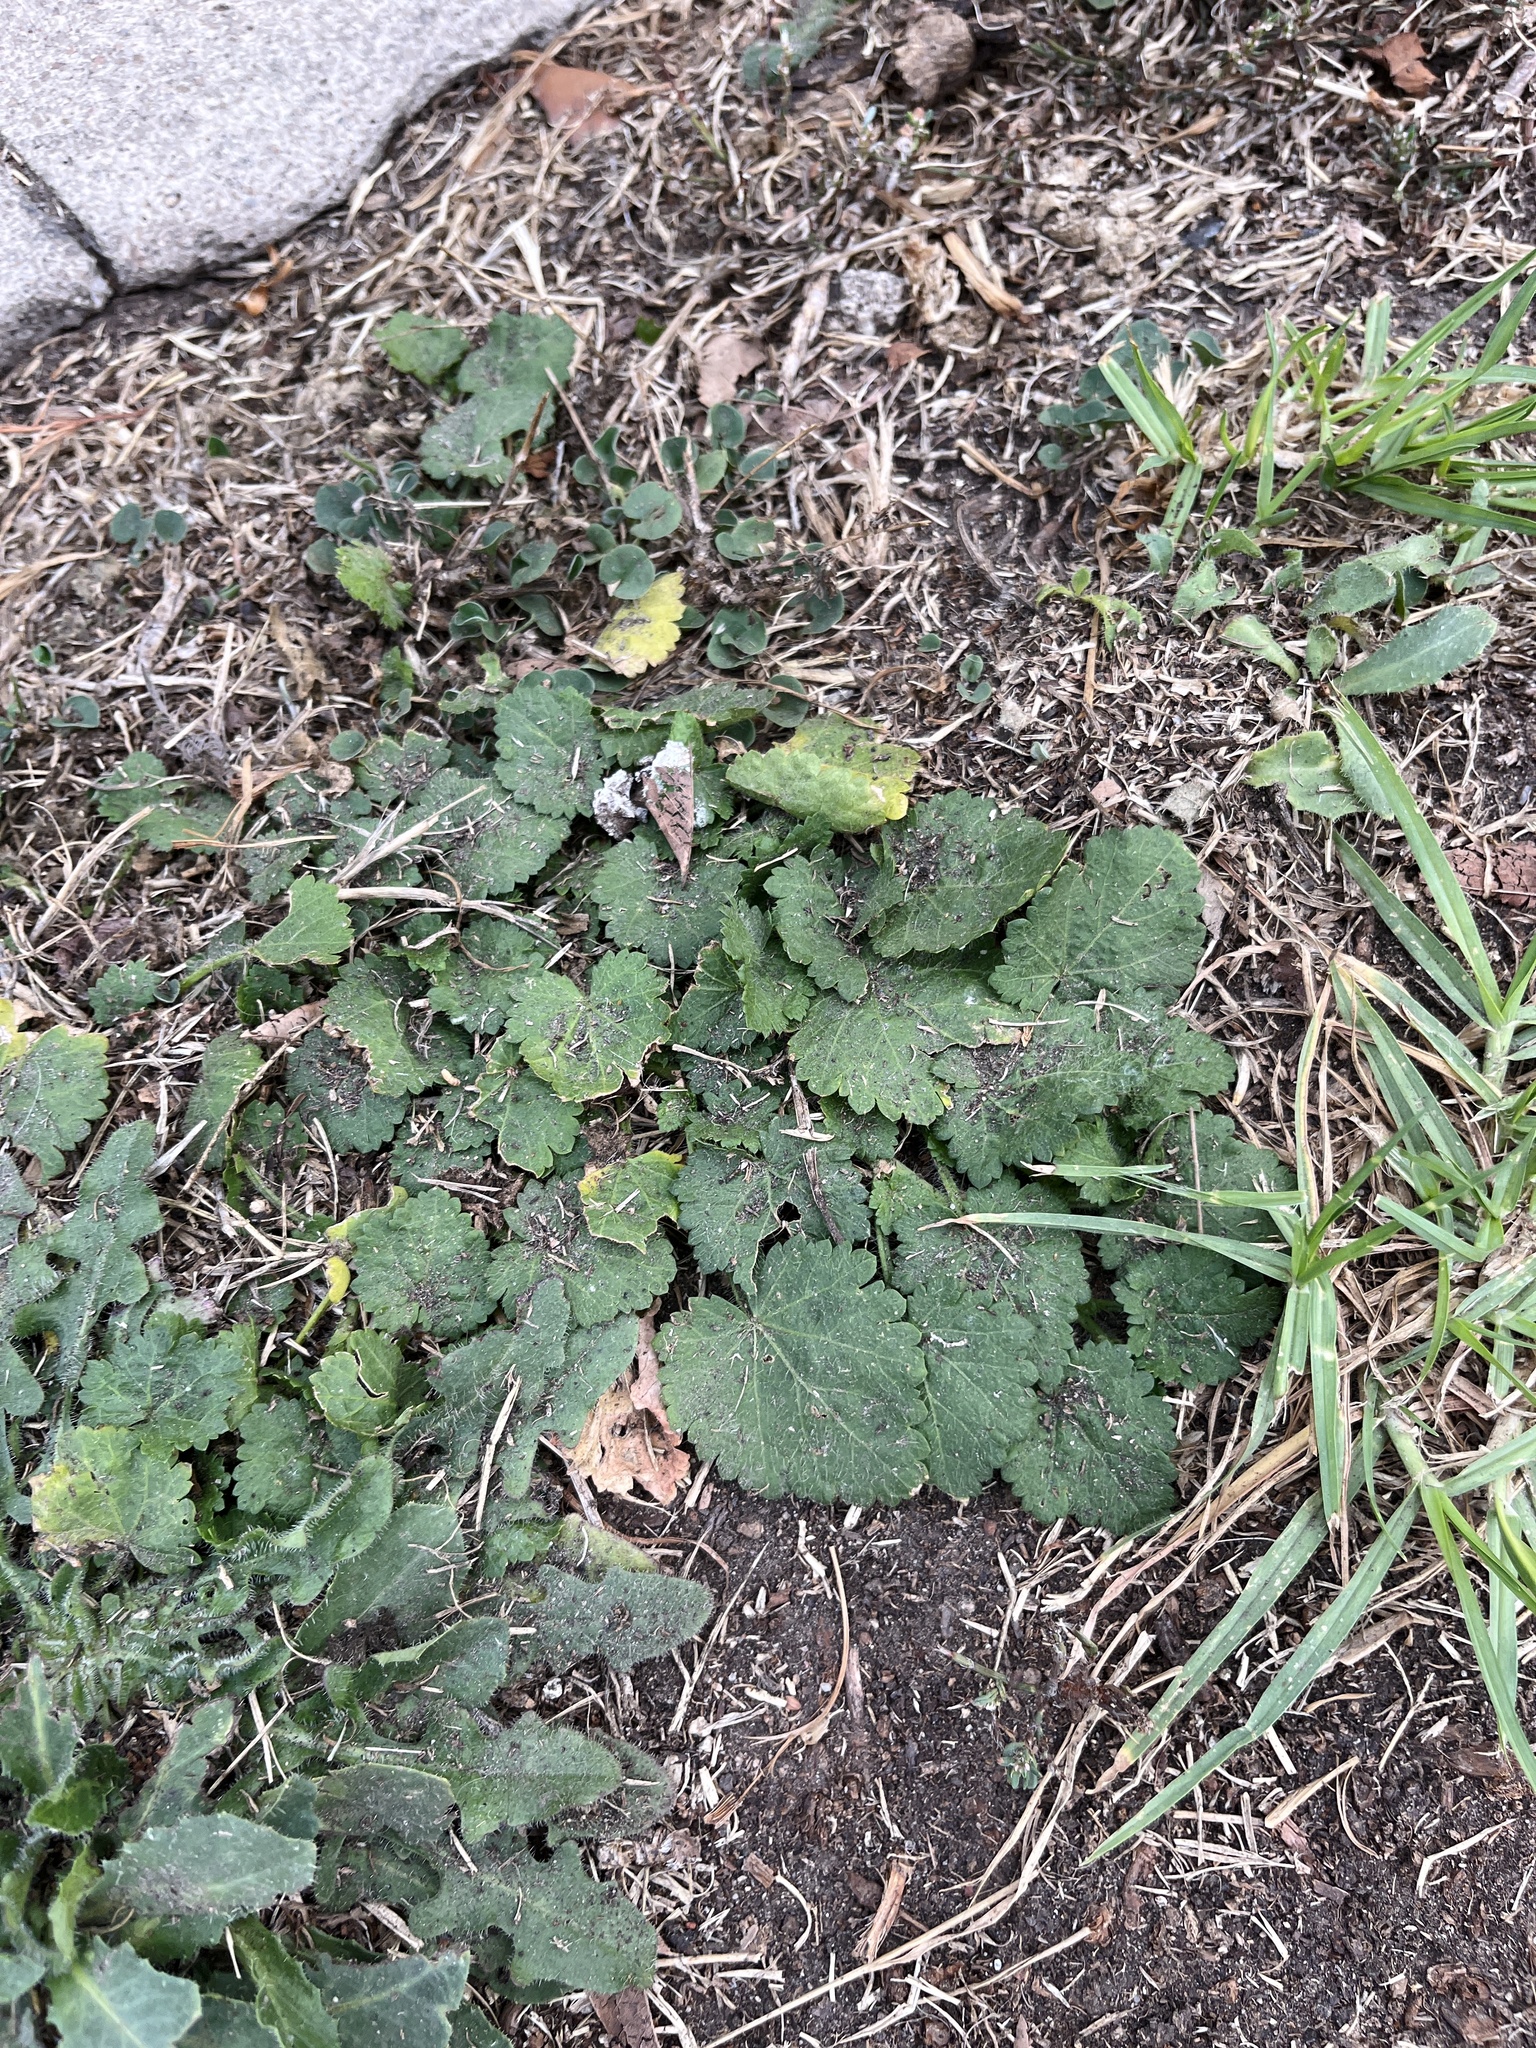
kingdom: Plantae
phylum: Tracheophyta
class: Magnoliopsida
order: Malvales
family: Malvaceae
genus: Modiola
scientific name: Modiola caroliniana
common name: Carolina bristlemallow
